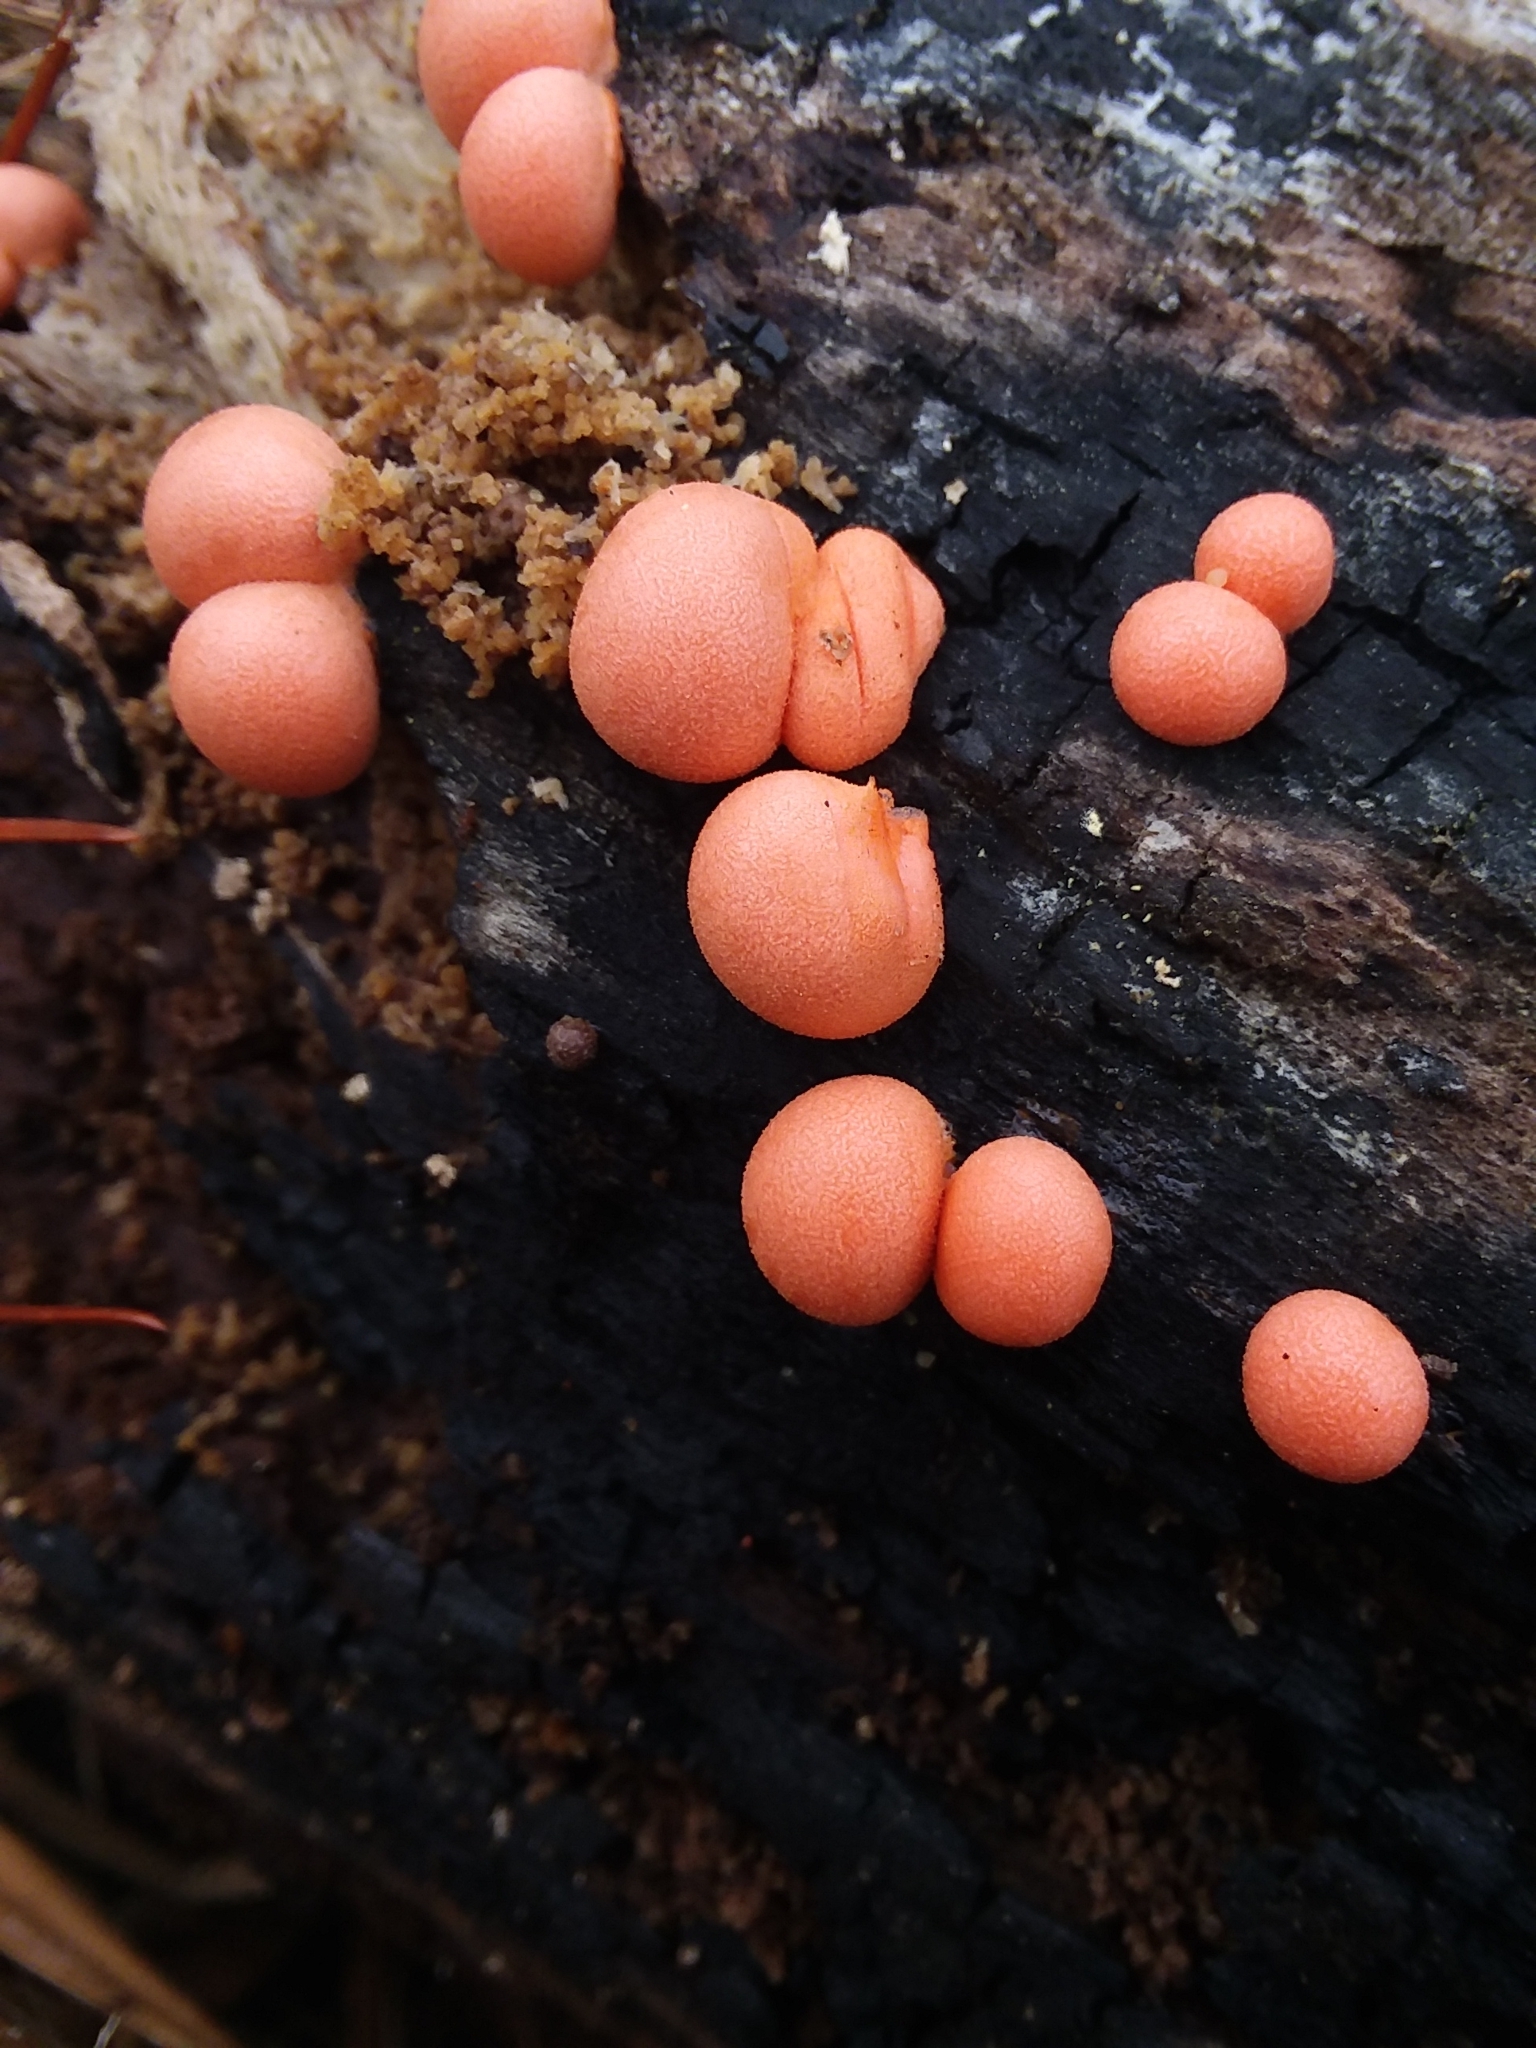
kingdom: Protozoa
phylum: Mycetozoa
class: Myxomycetes
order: Cribrariales
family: Tubiferaceae
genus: Lycogala
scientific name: Lycogala epidendrum
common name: Wolf's milk
